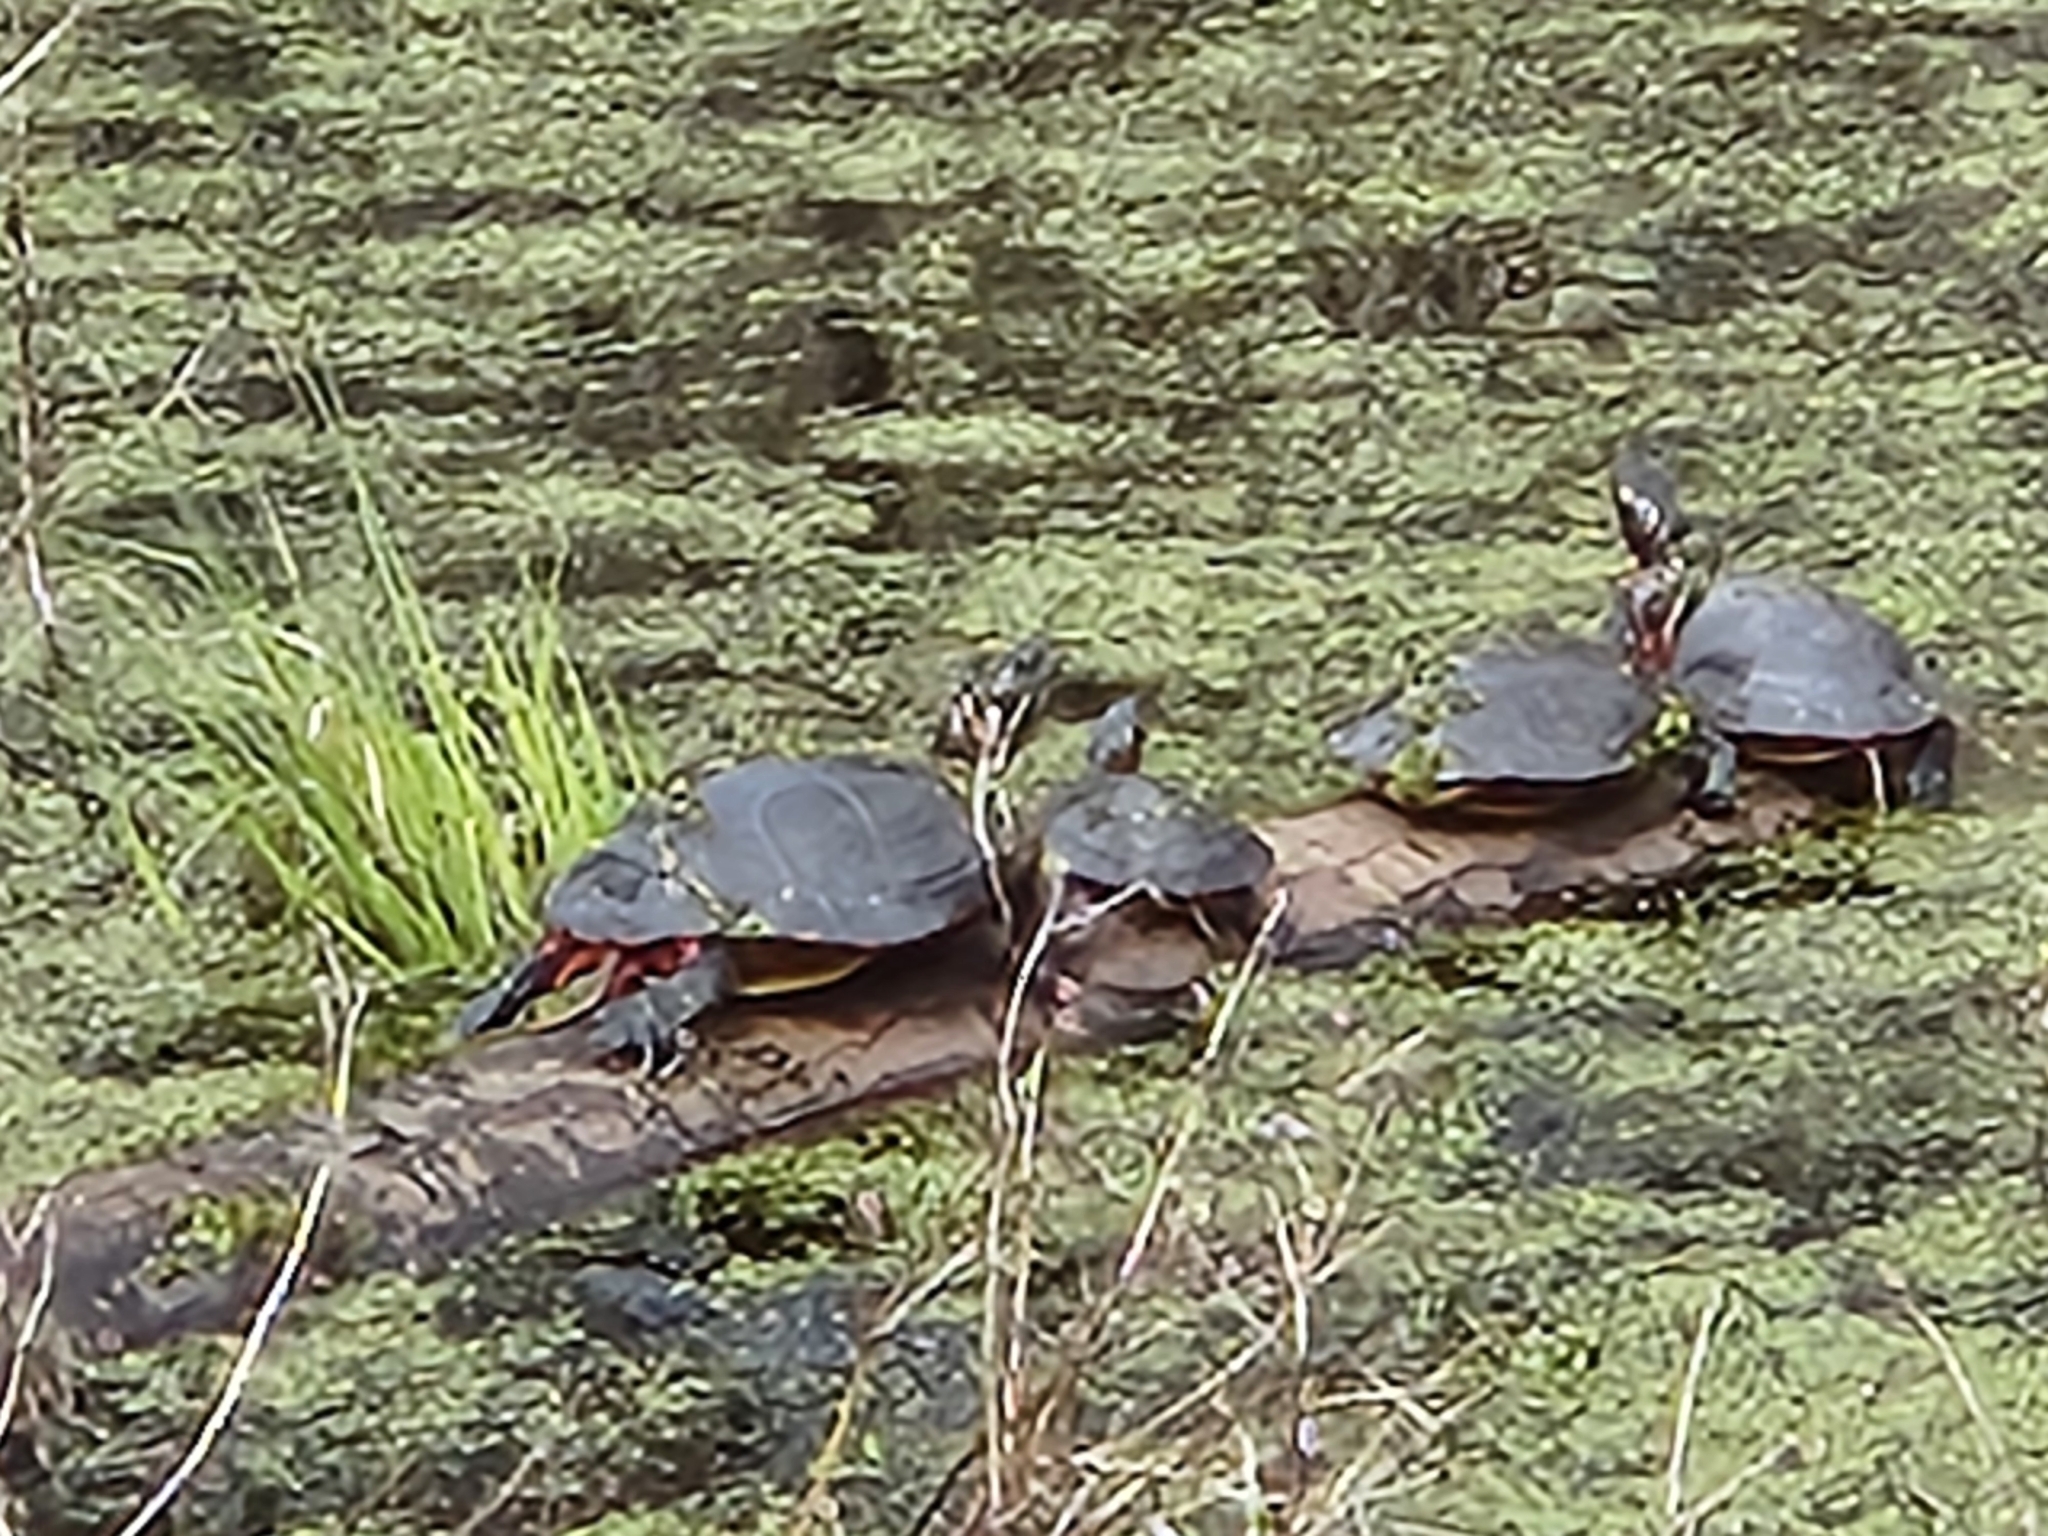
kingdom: Animalia
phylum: Chordata
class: Testudines
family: Emydidae
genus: Chrysemys
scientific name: Chrysemys picta
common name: Painted turtle
